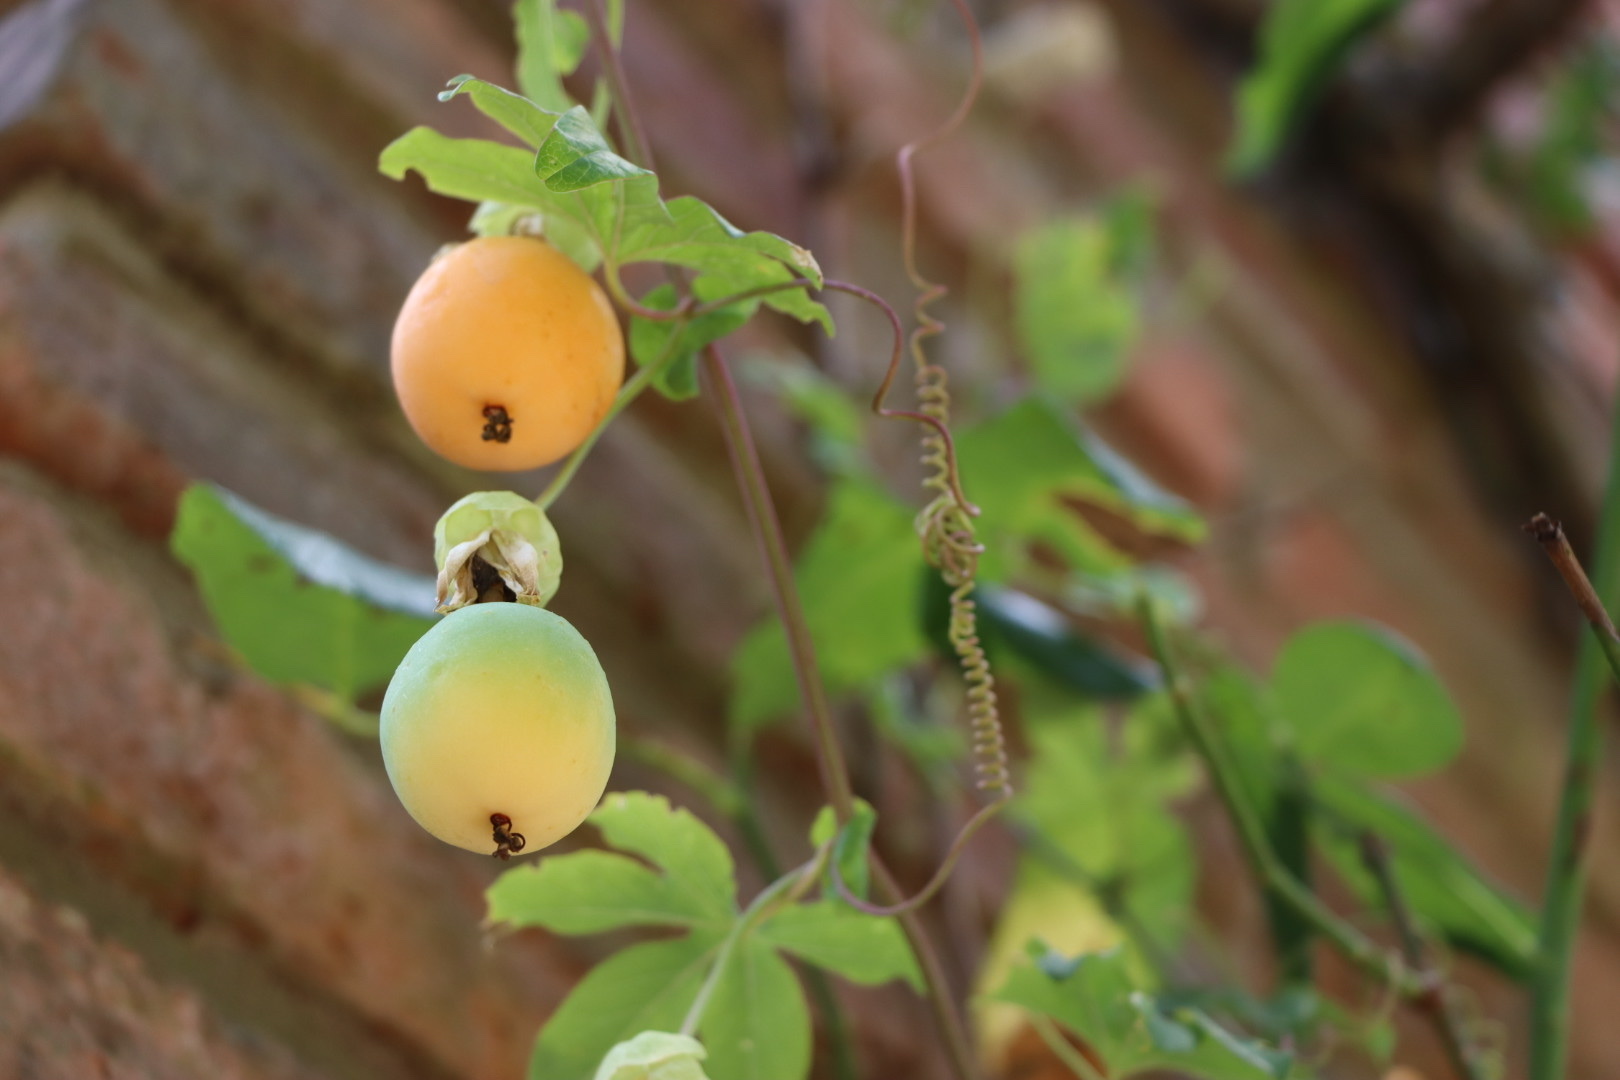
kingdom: Plantae
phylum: Tracheophyta
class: Magnoliopsida
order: Malpighiales
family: Passifloraceae
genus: Passiflora
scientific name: Passiflora caerulea
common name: Blue passionflower
